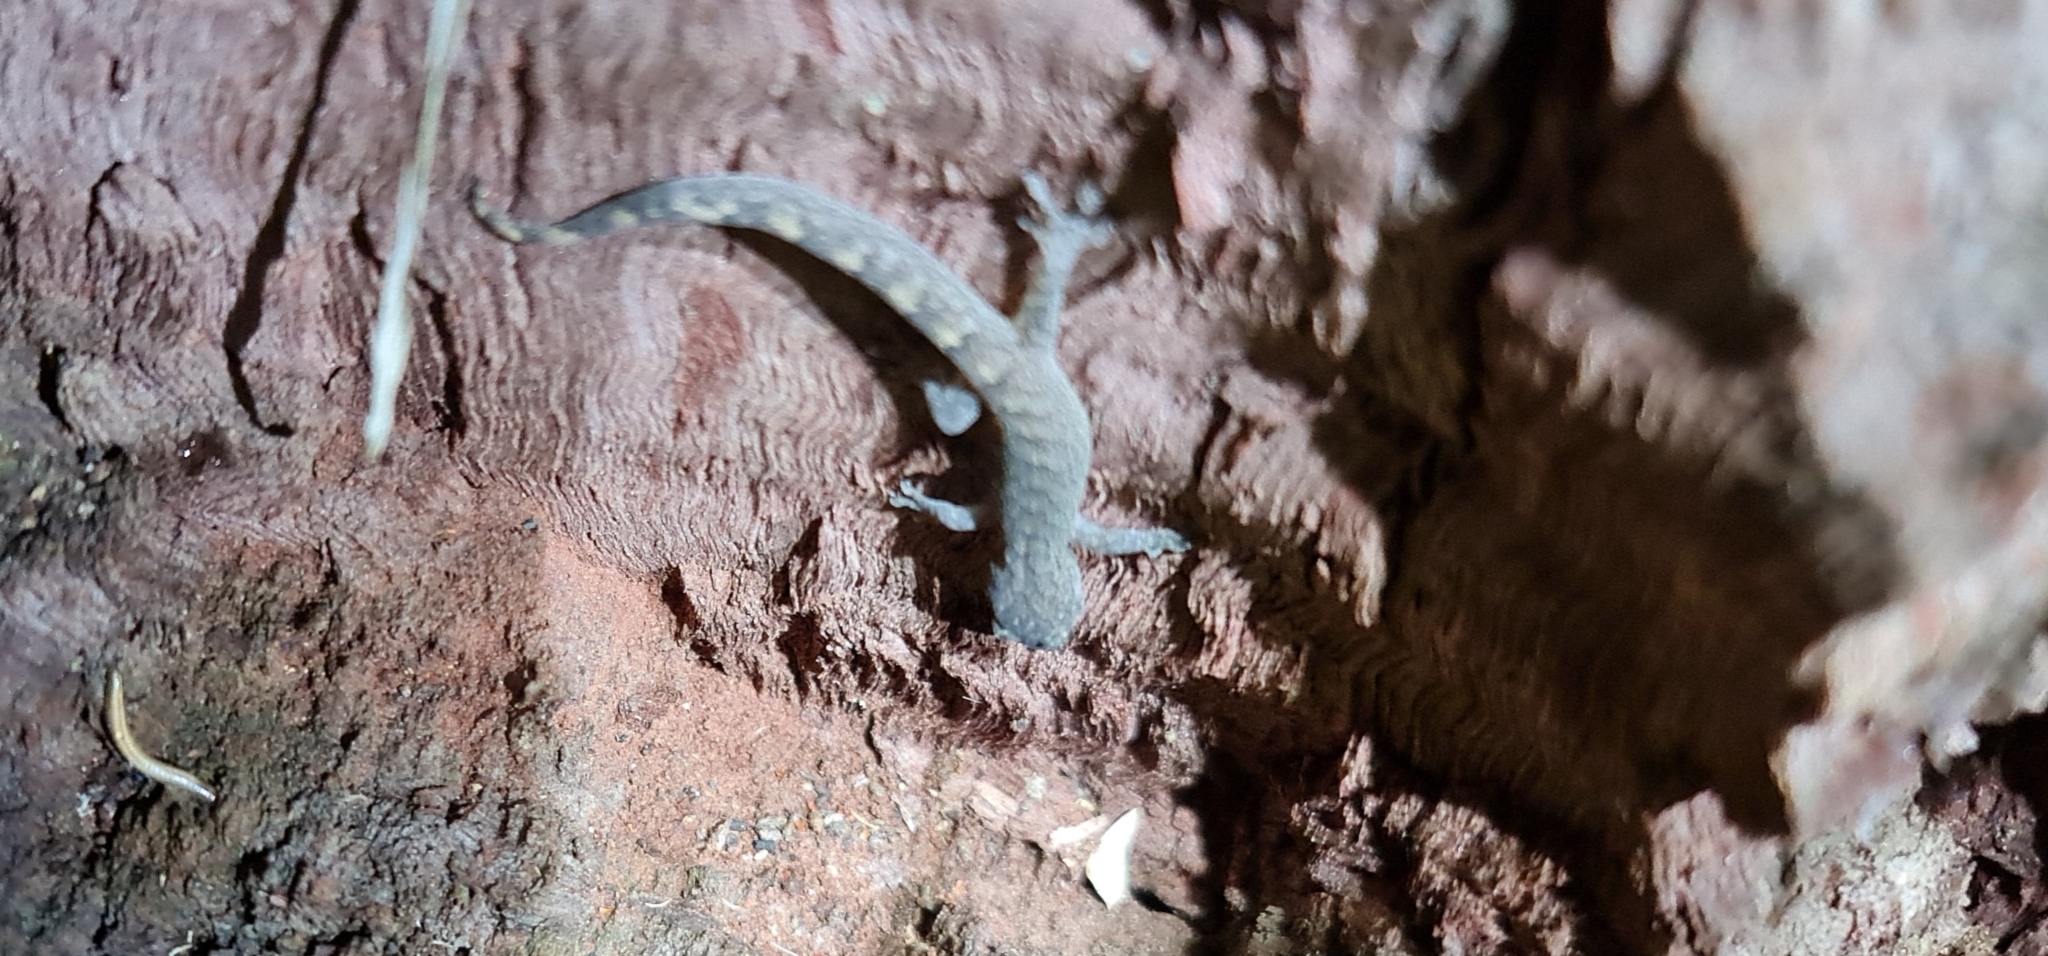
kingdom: Animalia
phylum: Chordata
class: Squamata
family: Gekkonidae
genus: Christinus
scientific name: Christinus marmoratus
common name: Marbled gecko
